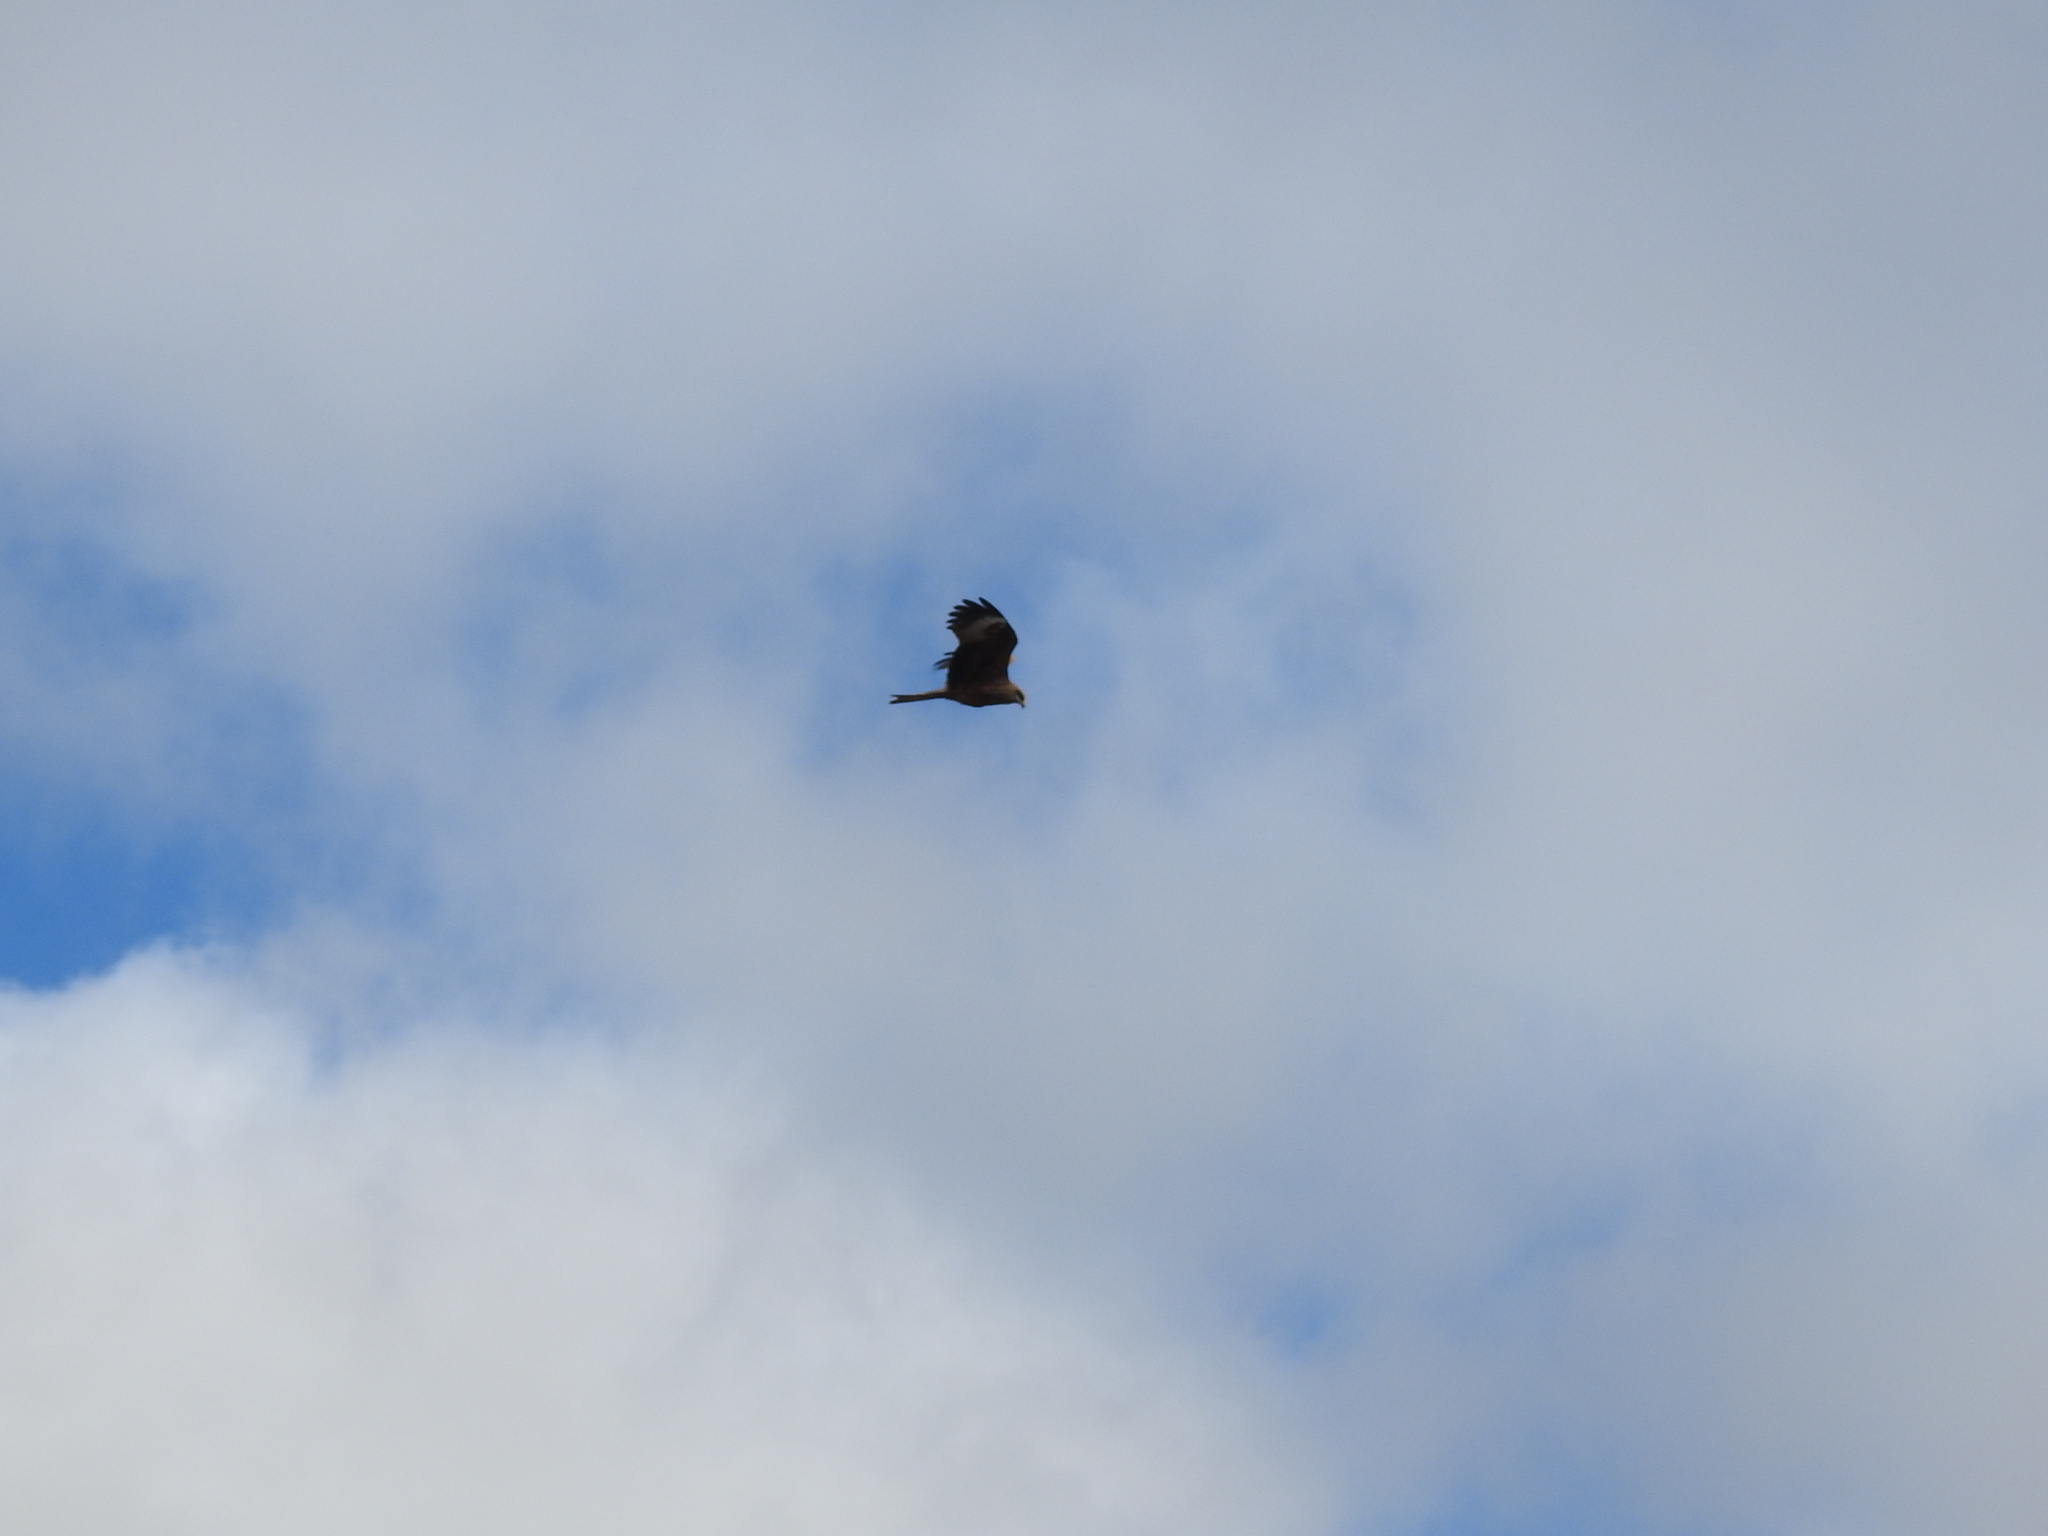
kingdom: Animalia
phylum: Chordata
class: Aves
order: Accipitriformes
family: Accipitridae
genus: Milvus
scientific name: Milvus migrans
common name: Black kite
